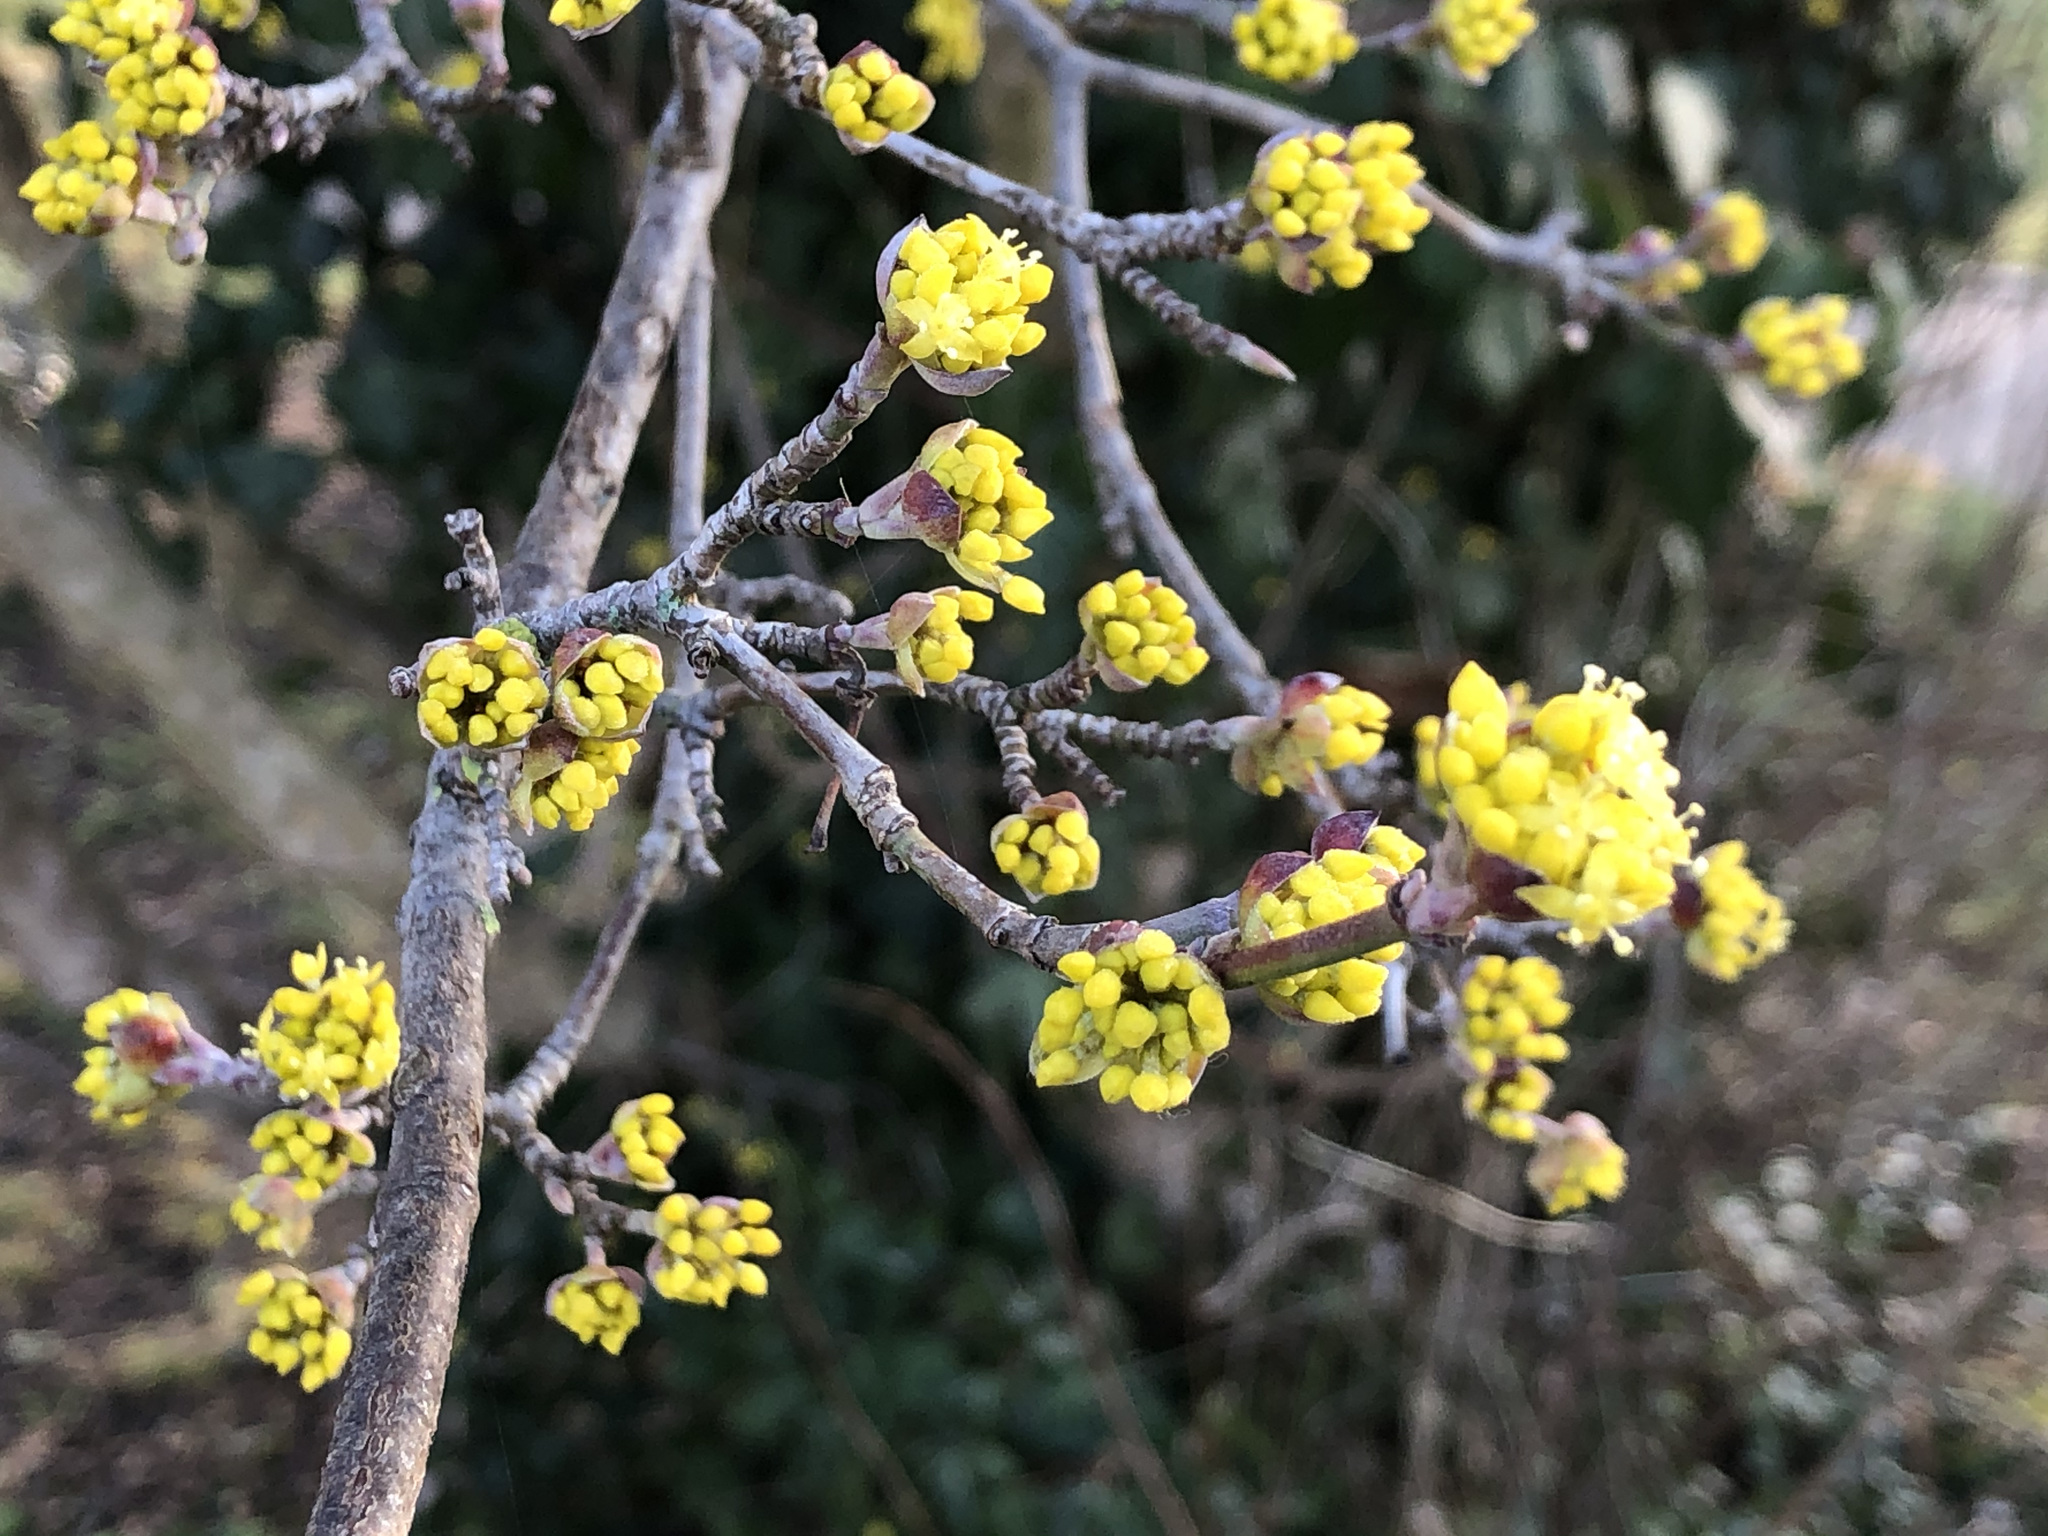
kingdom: Plantae
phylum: Tracheophyta
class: Magnoliopsida
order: Cornales
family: Cornaceae
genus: Cornus
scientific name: Cornus mas
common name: Cornelian-cherry
